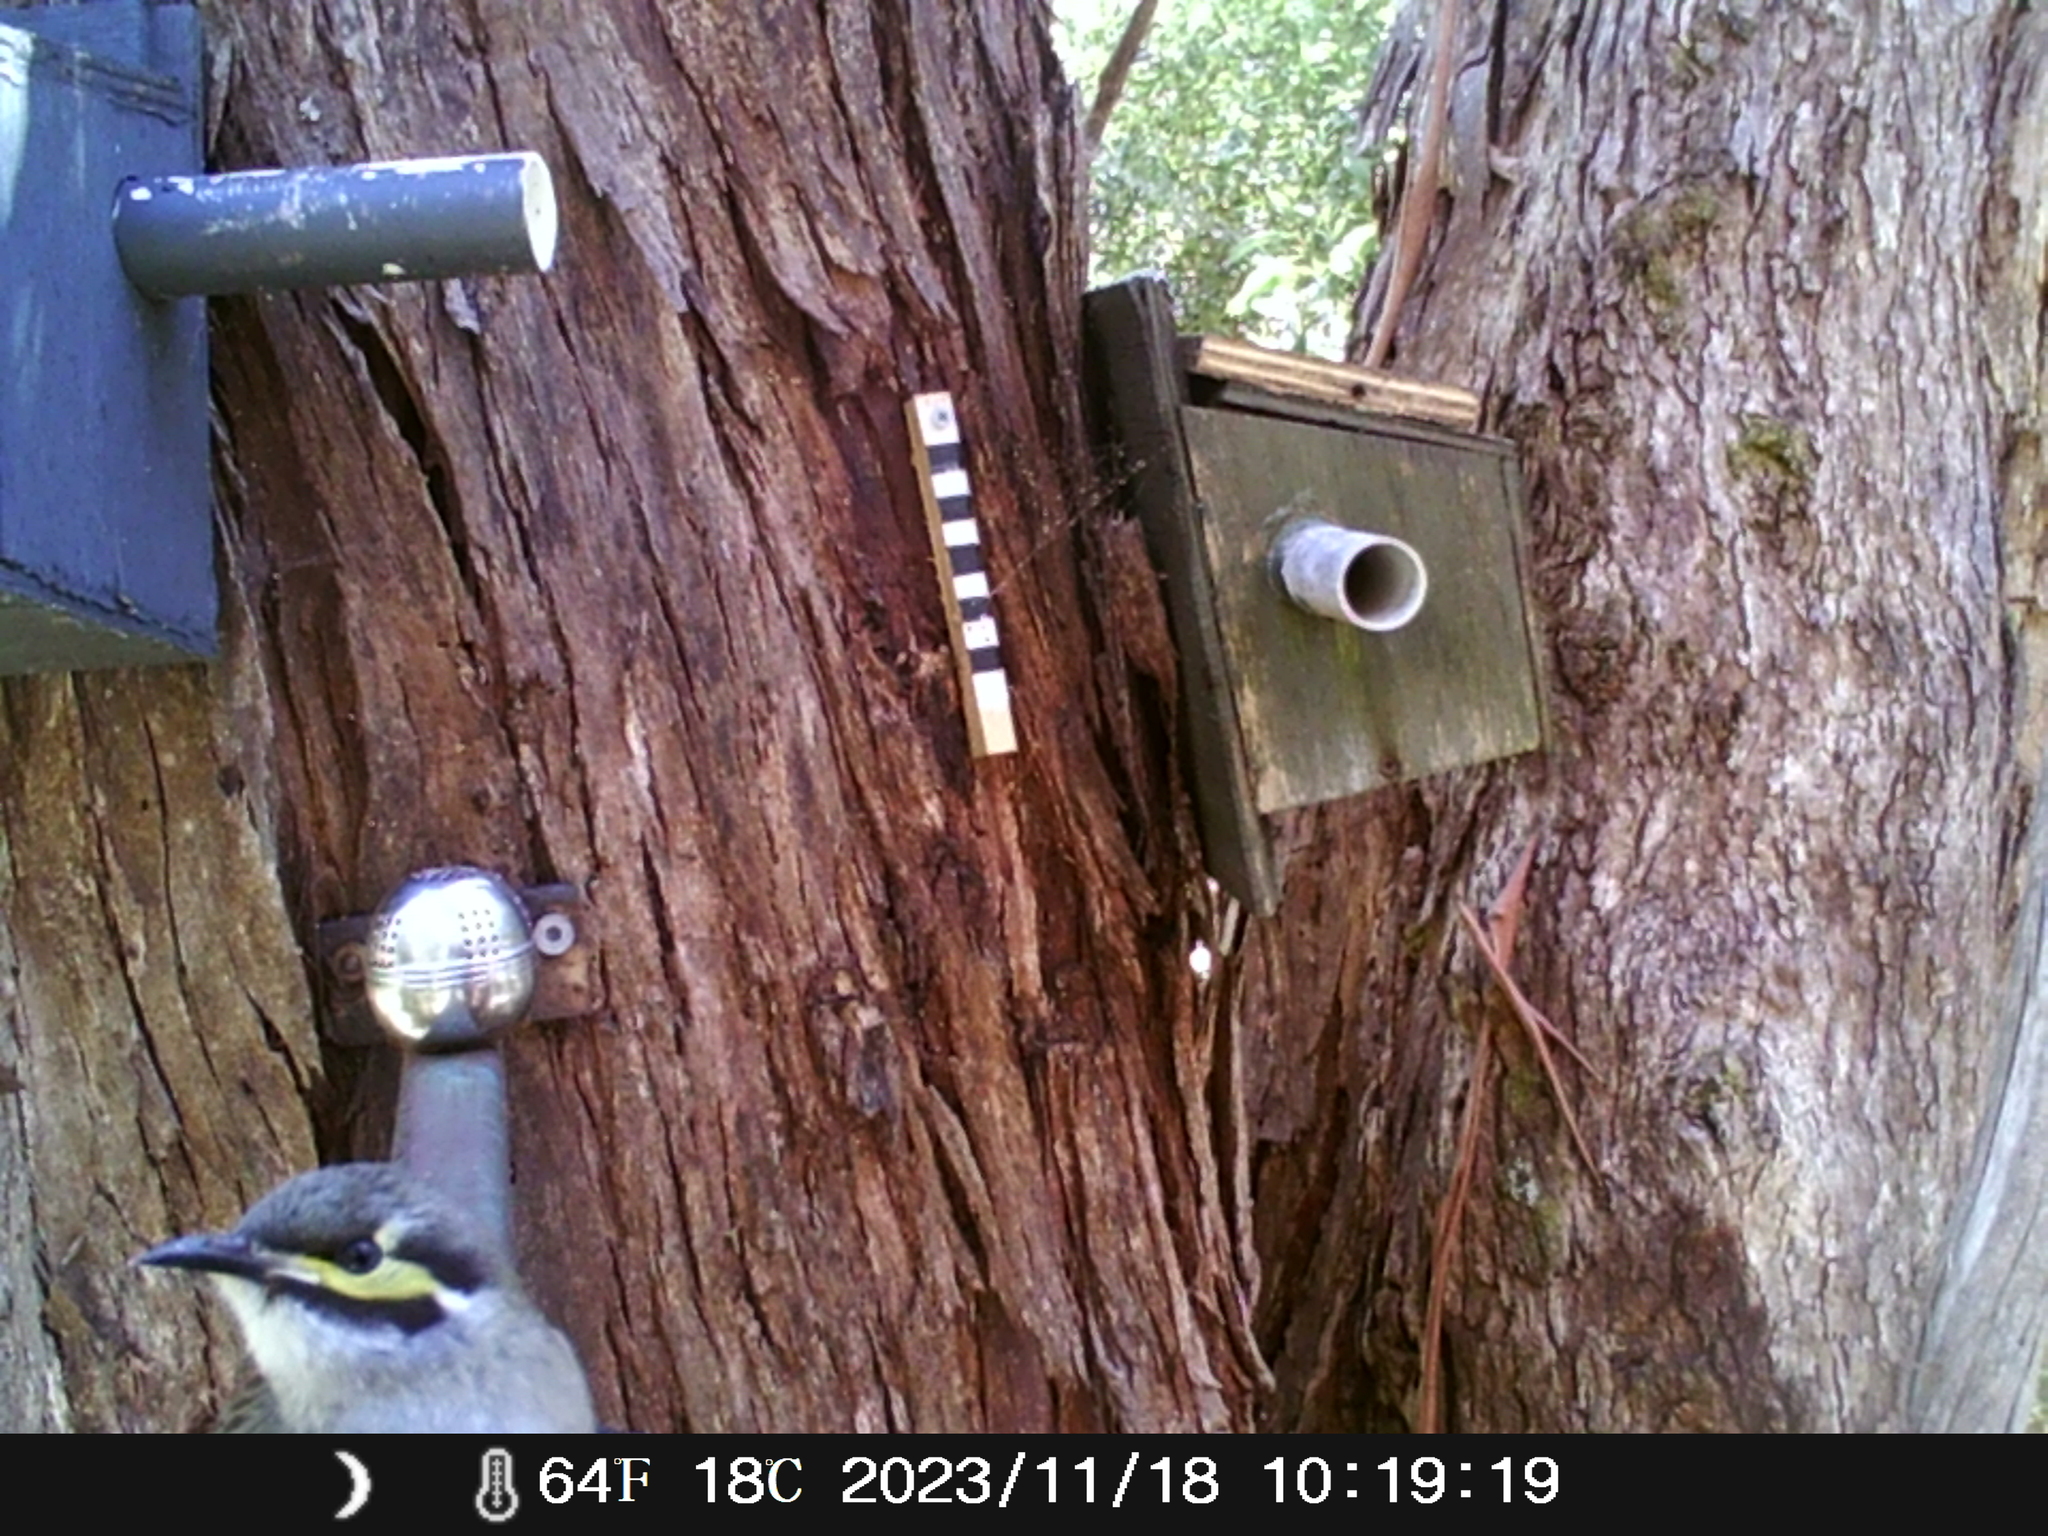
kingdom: Animalia
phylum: Chordata
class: Aves
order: Passeriformes
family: Meliphagidae
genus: Caligavis
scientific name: Caligavis chrysops
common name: Yellow-faced honeyeater
